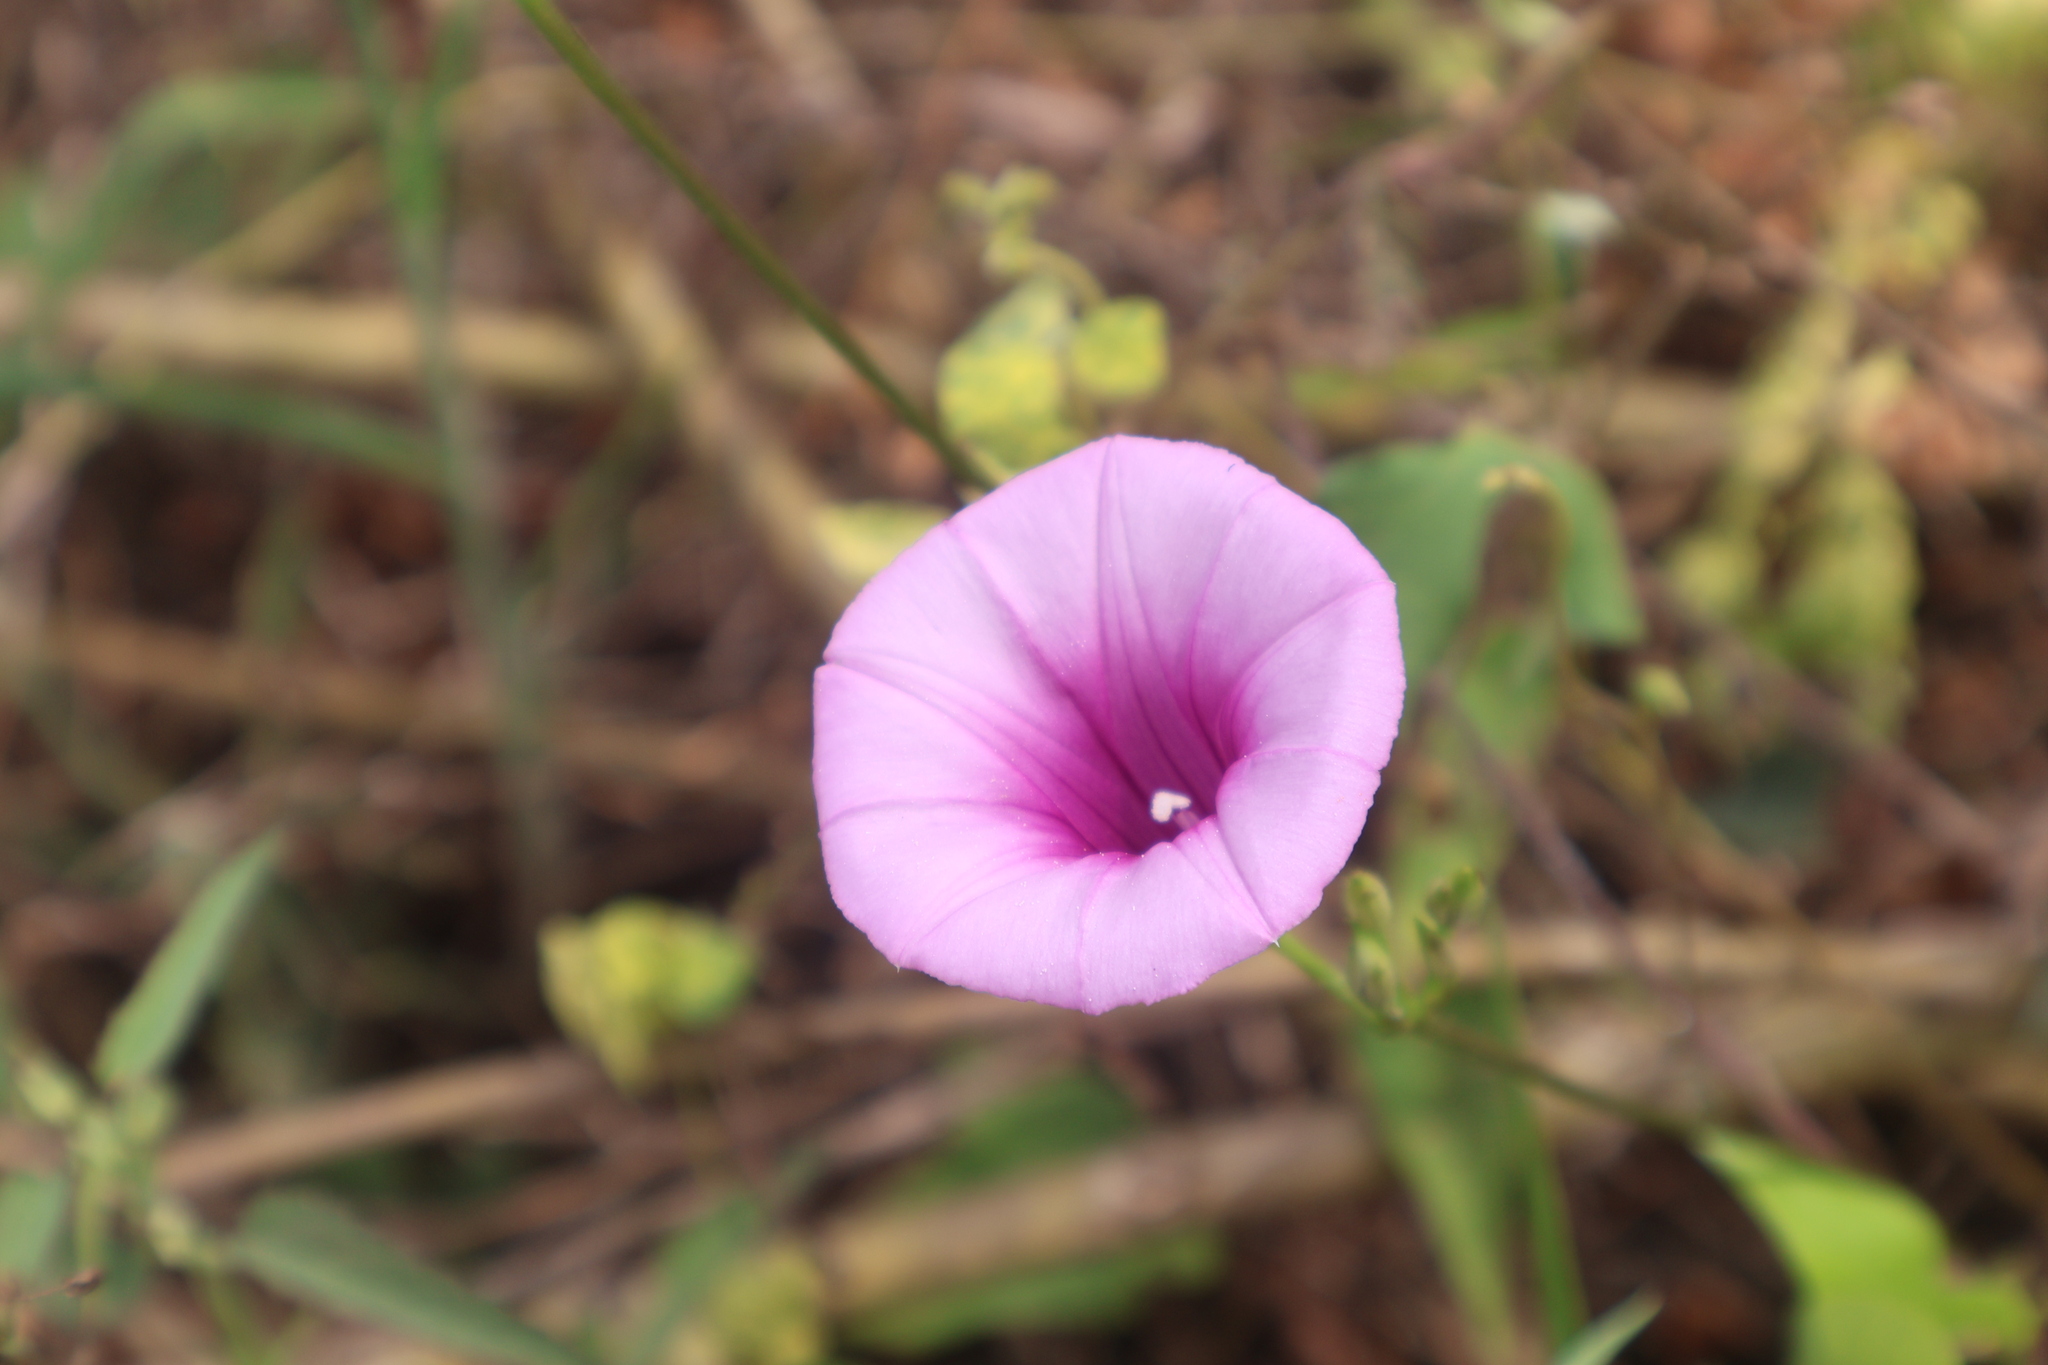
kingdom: Plantae
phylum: Tracheophyta
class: Magnoliopsida
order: Solanales
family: Convolvulaceae
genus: Ipomoea
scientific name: Ipomoea trifida
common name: Cotton morningglory
